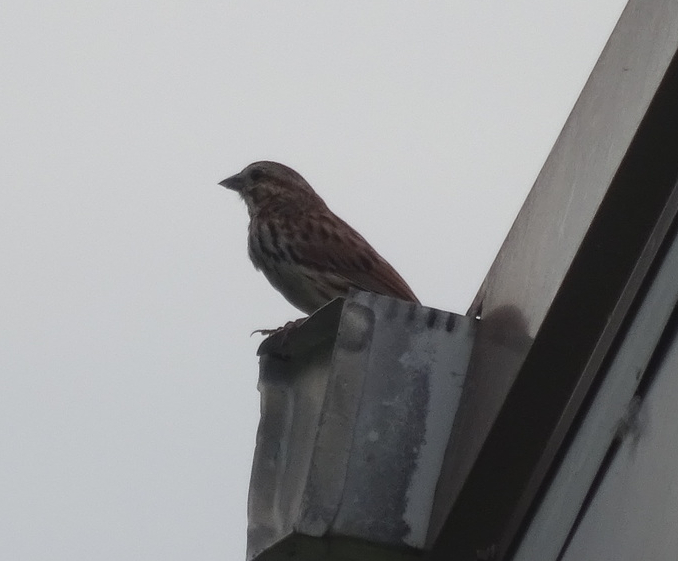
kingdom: Animalia
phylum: Chordata
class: Aves
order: Passeriformes
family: Passerellidae
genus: Melospiza
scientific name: Melospiza melodia
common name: Song sparrow
